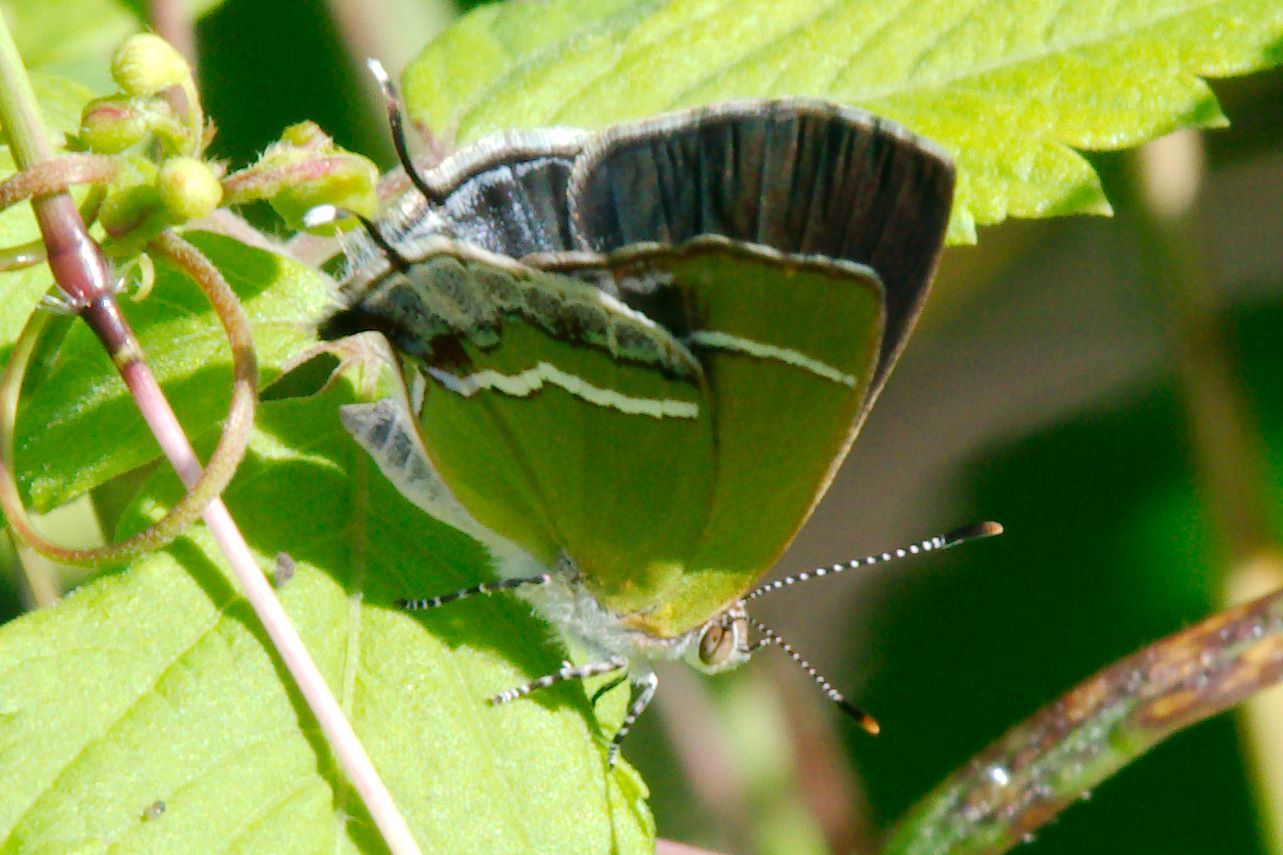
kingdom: Animalia
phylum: Arthropoda
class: Insecta
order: Lepidoptera
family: Lycaenidae
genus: Chlorostrymon
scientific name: Chlorostrymon simaethis
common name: Silver-banded hairstreak
